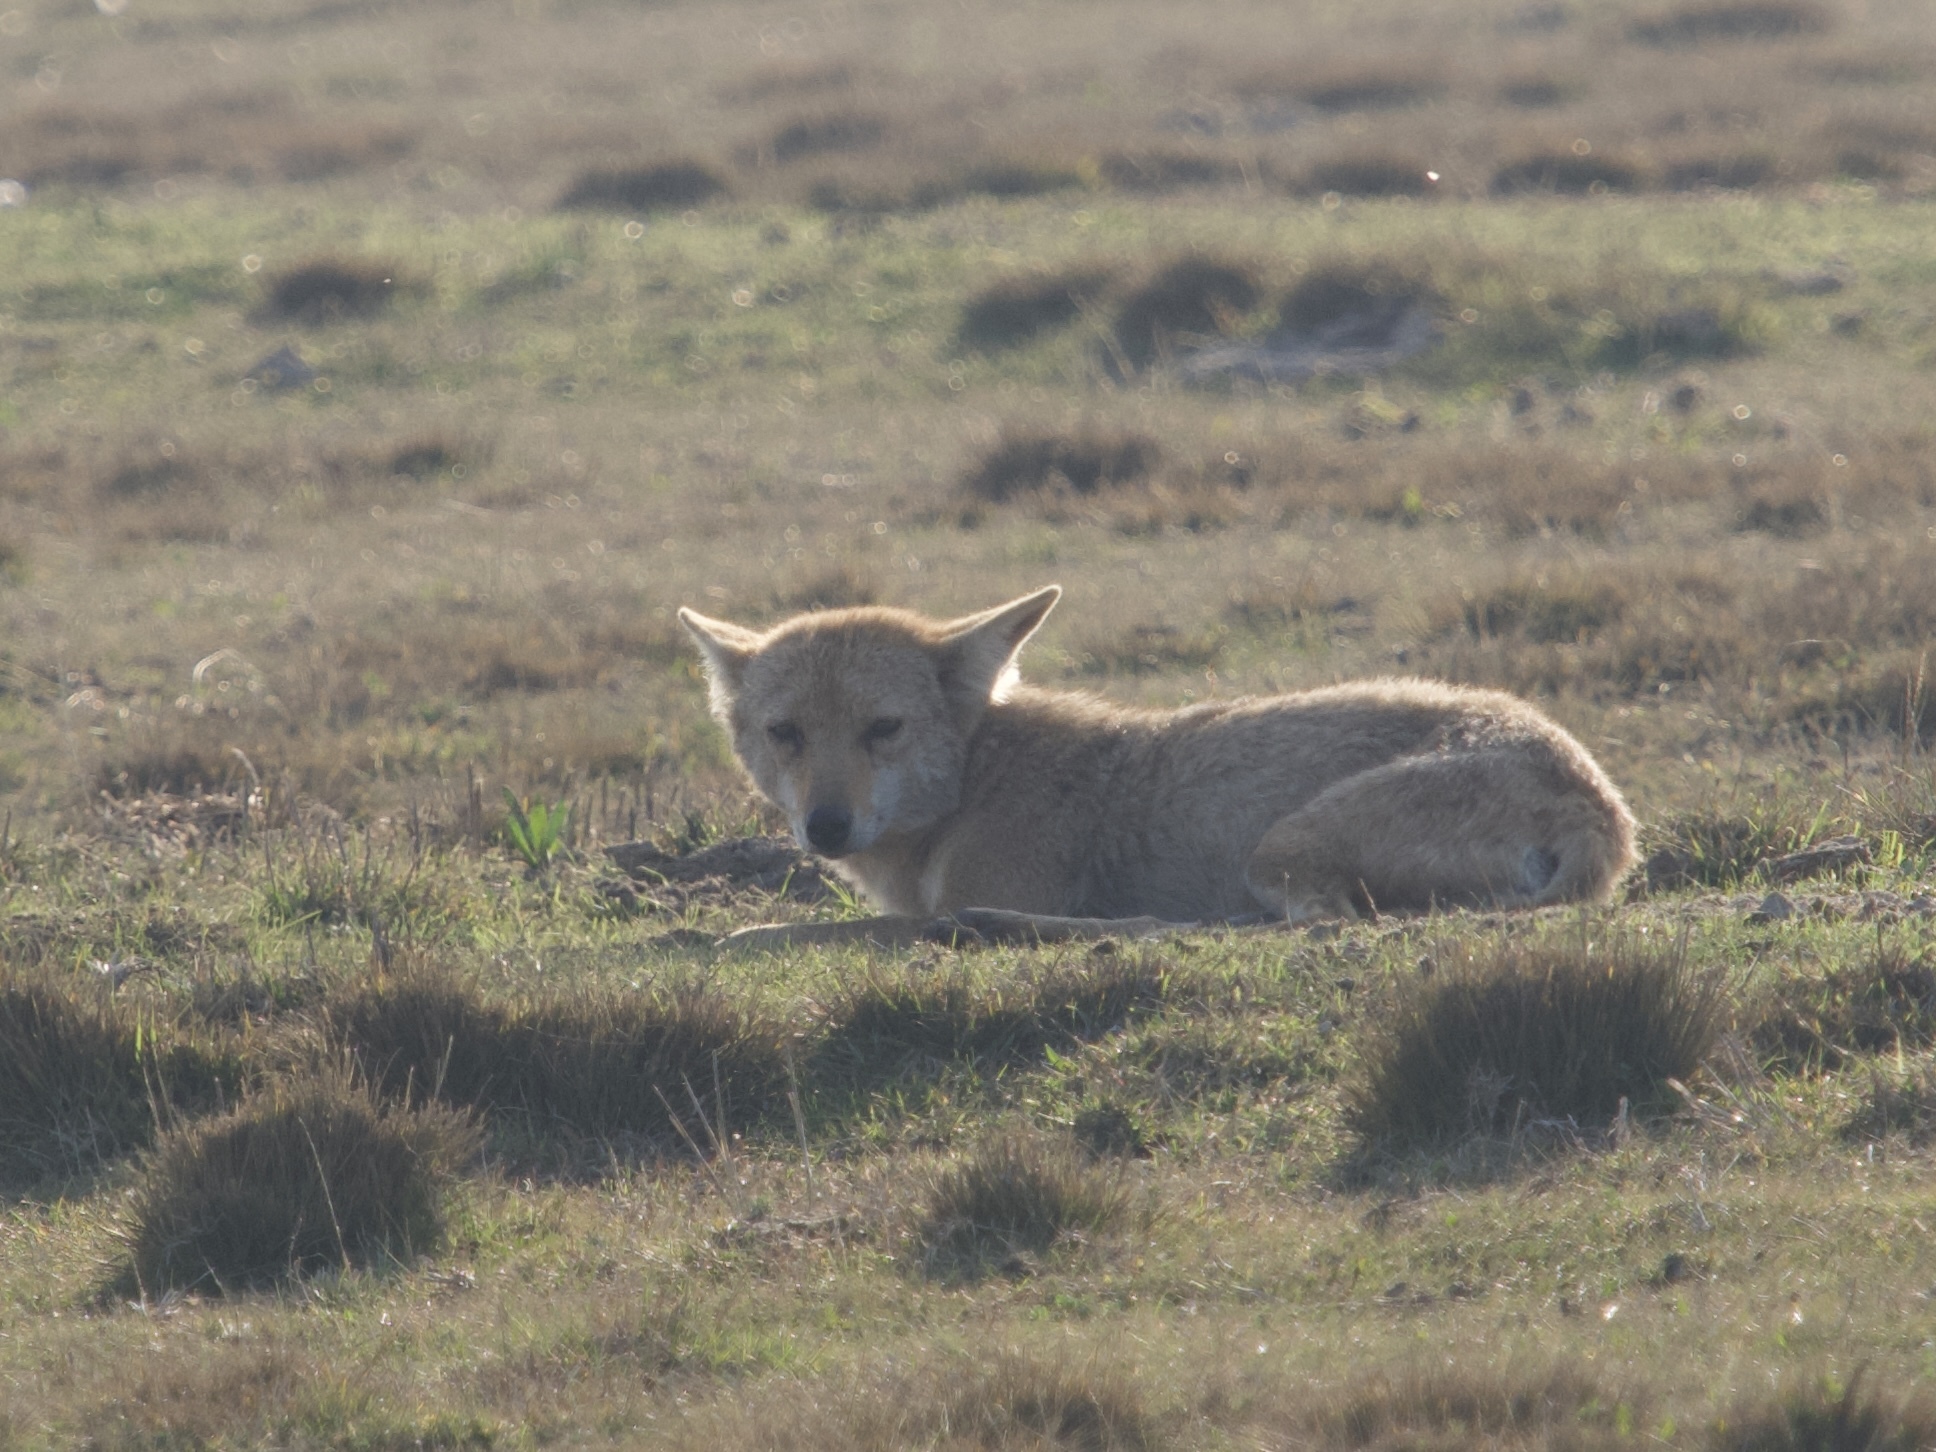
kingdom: Animalia
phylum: Chordata
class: Mammalia
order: Carnivora
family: Canidae
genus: Canis
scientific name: Canis latrans
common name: Coyote
